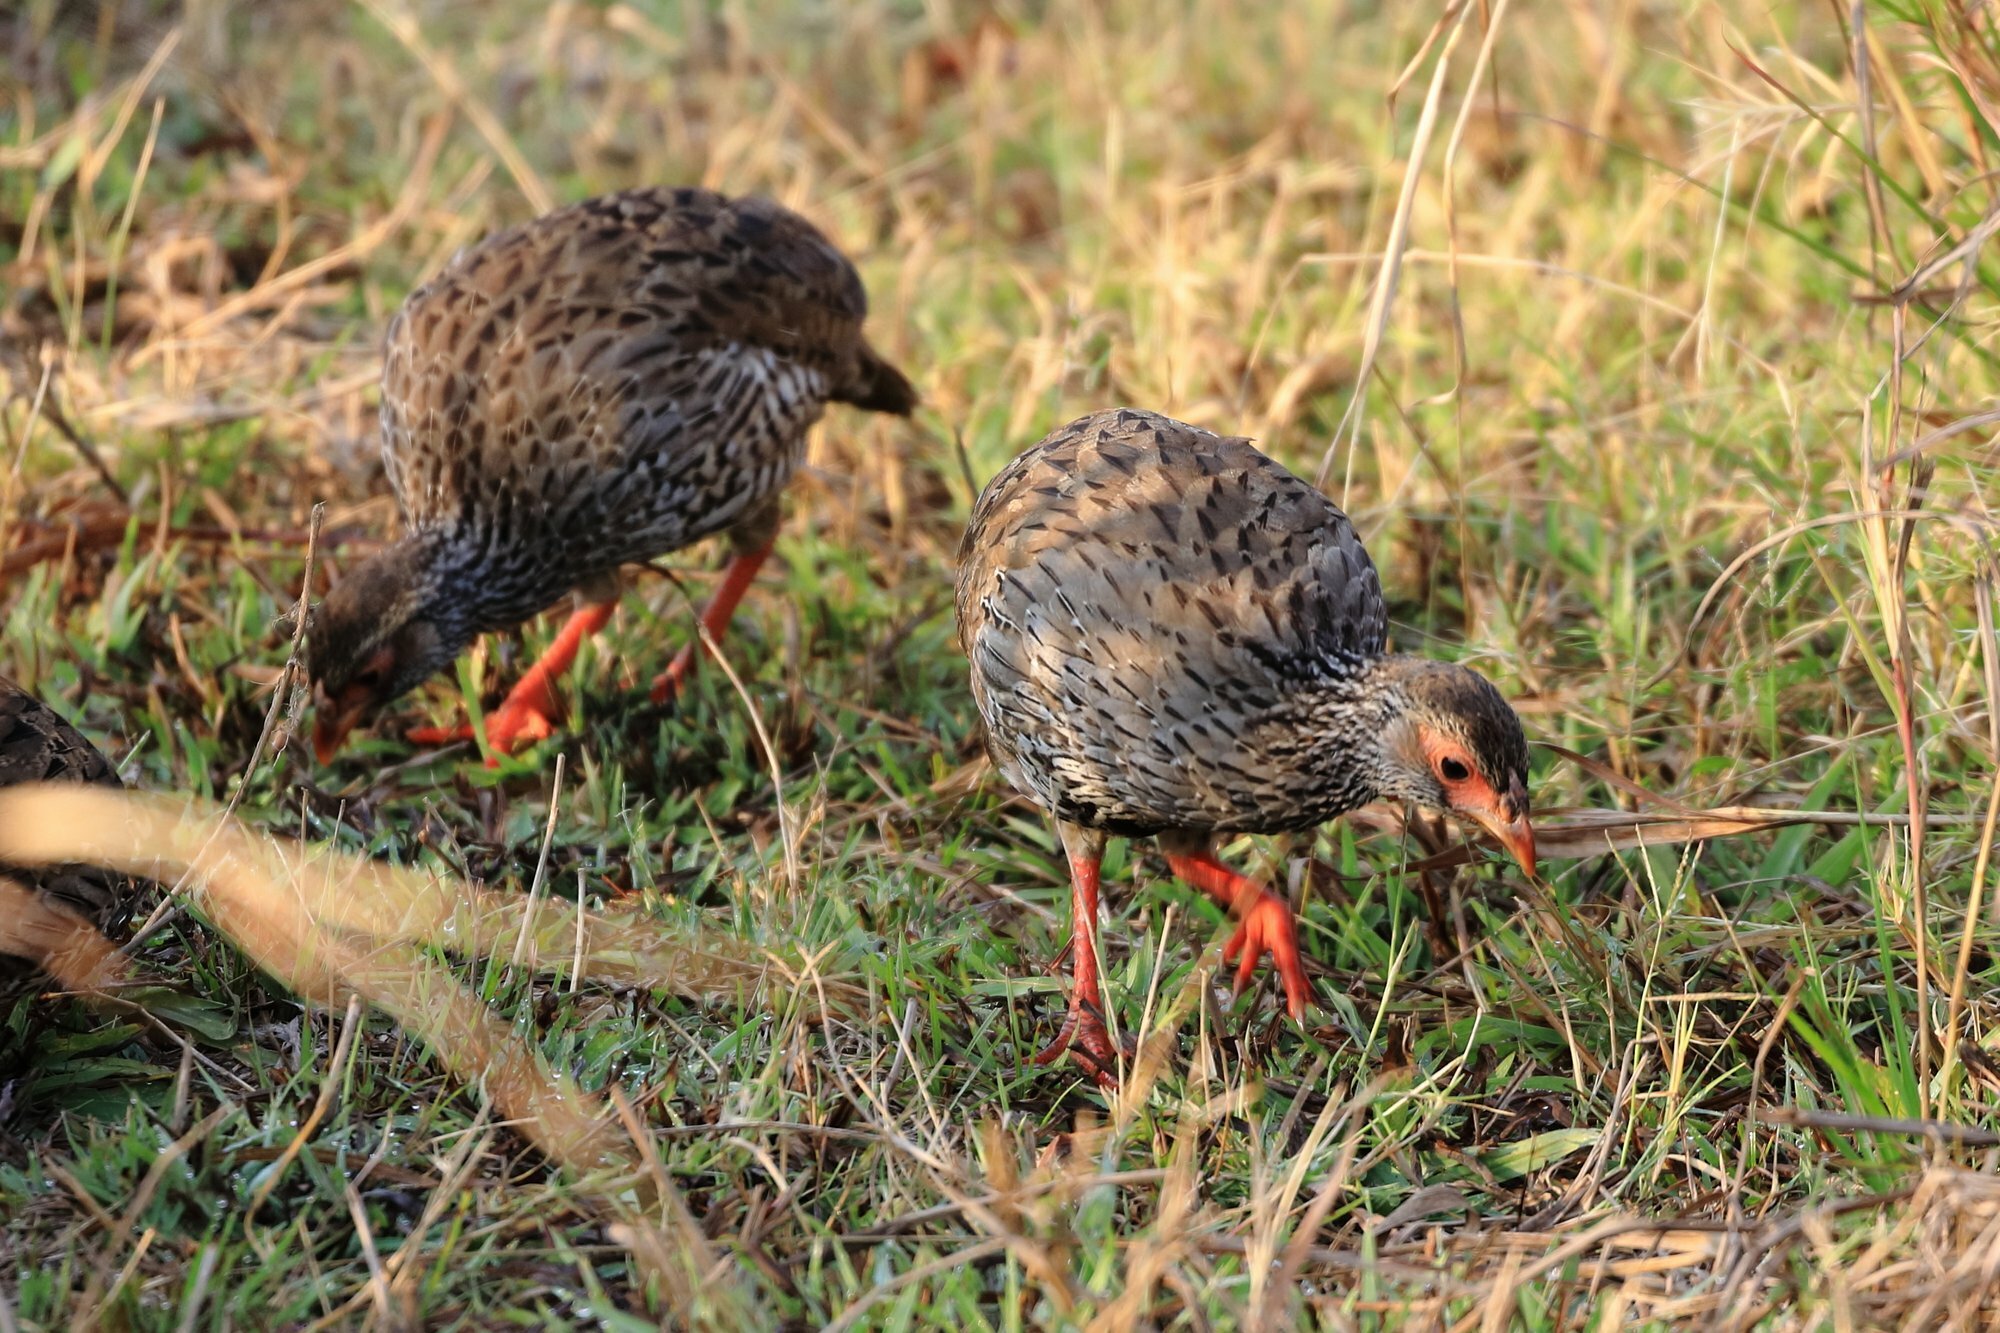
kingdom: Animalia
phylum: Chordata
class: Aves
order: Galliformes
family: Phasianidae
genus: Pternistis
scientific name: Pternistis afer
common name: Red-necked spurfowl
